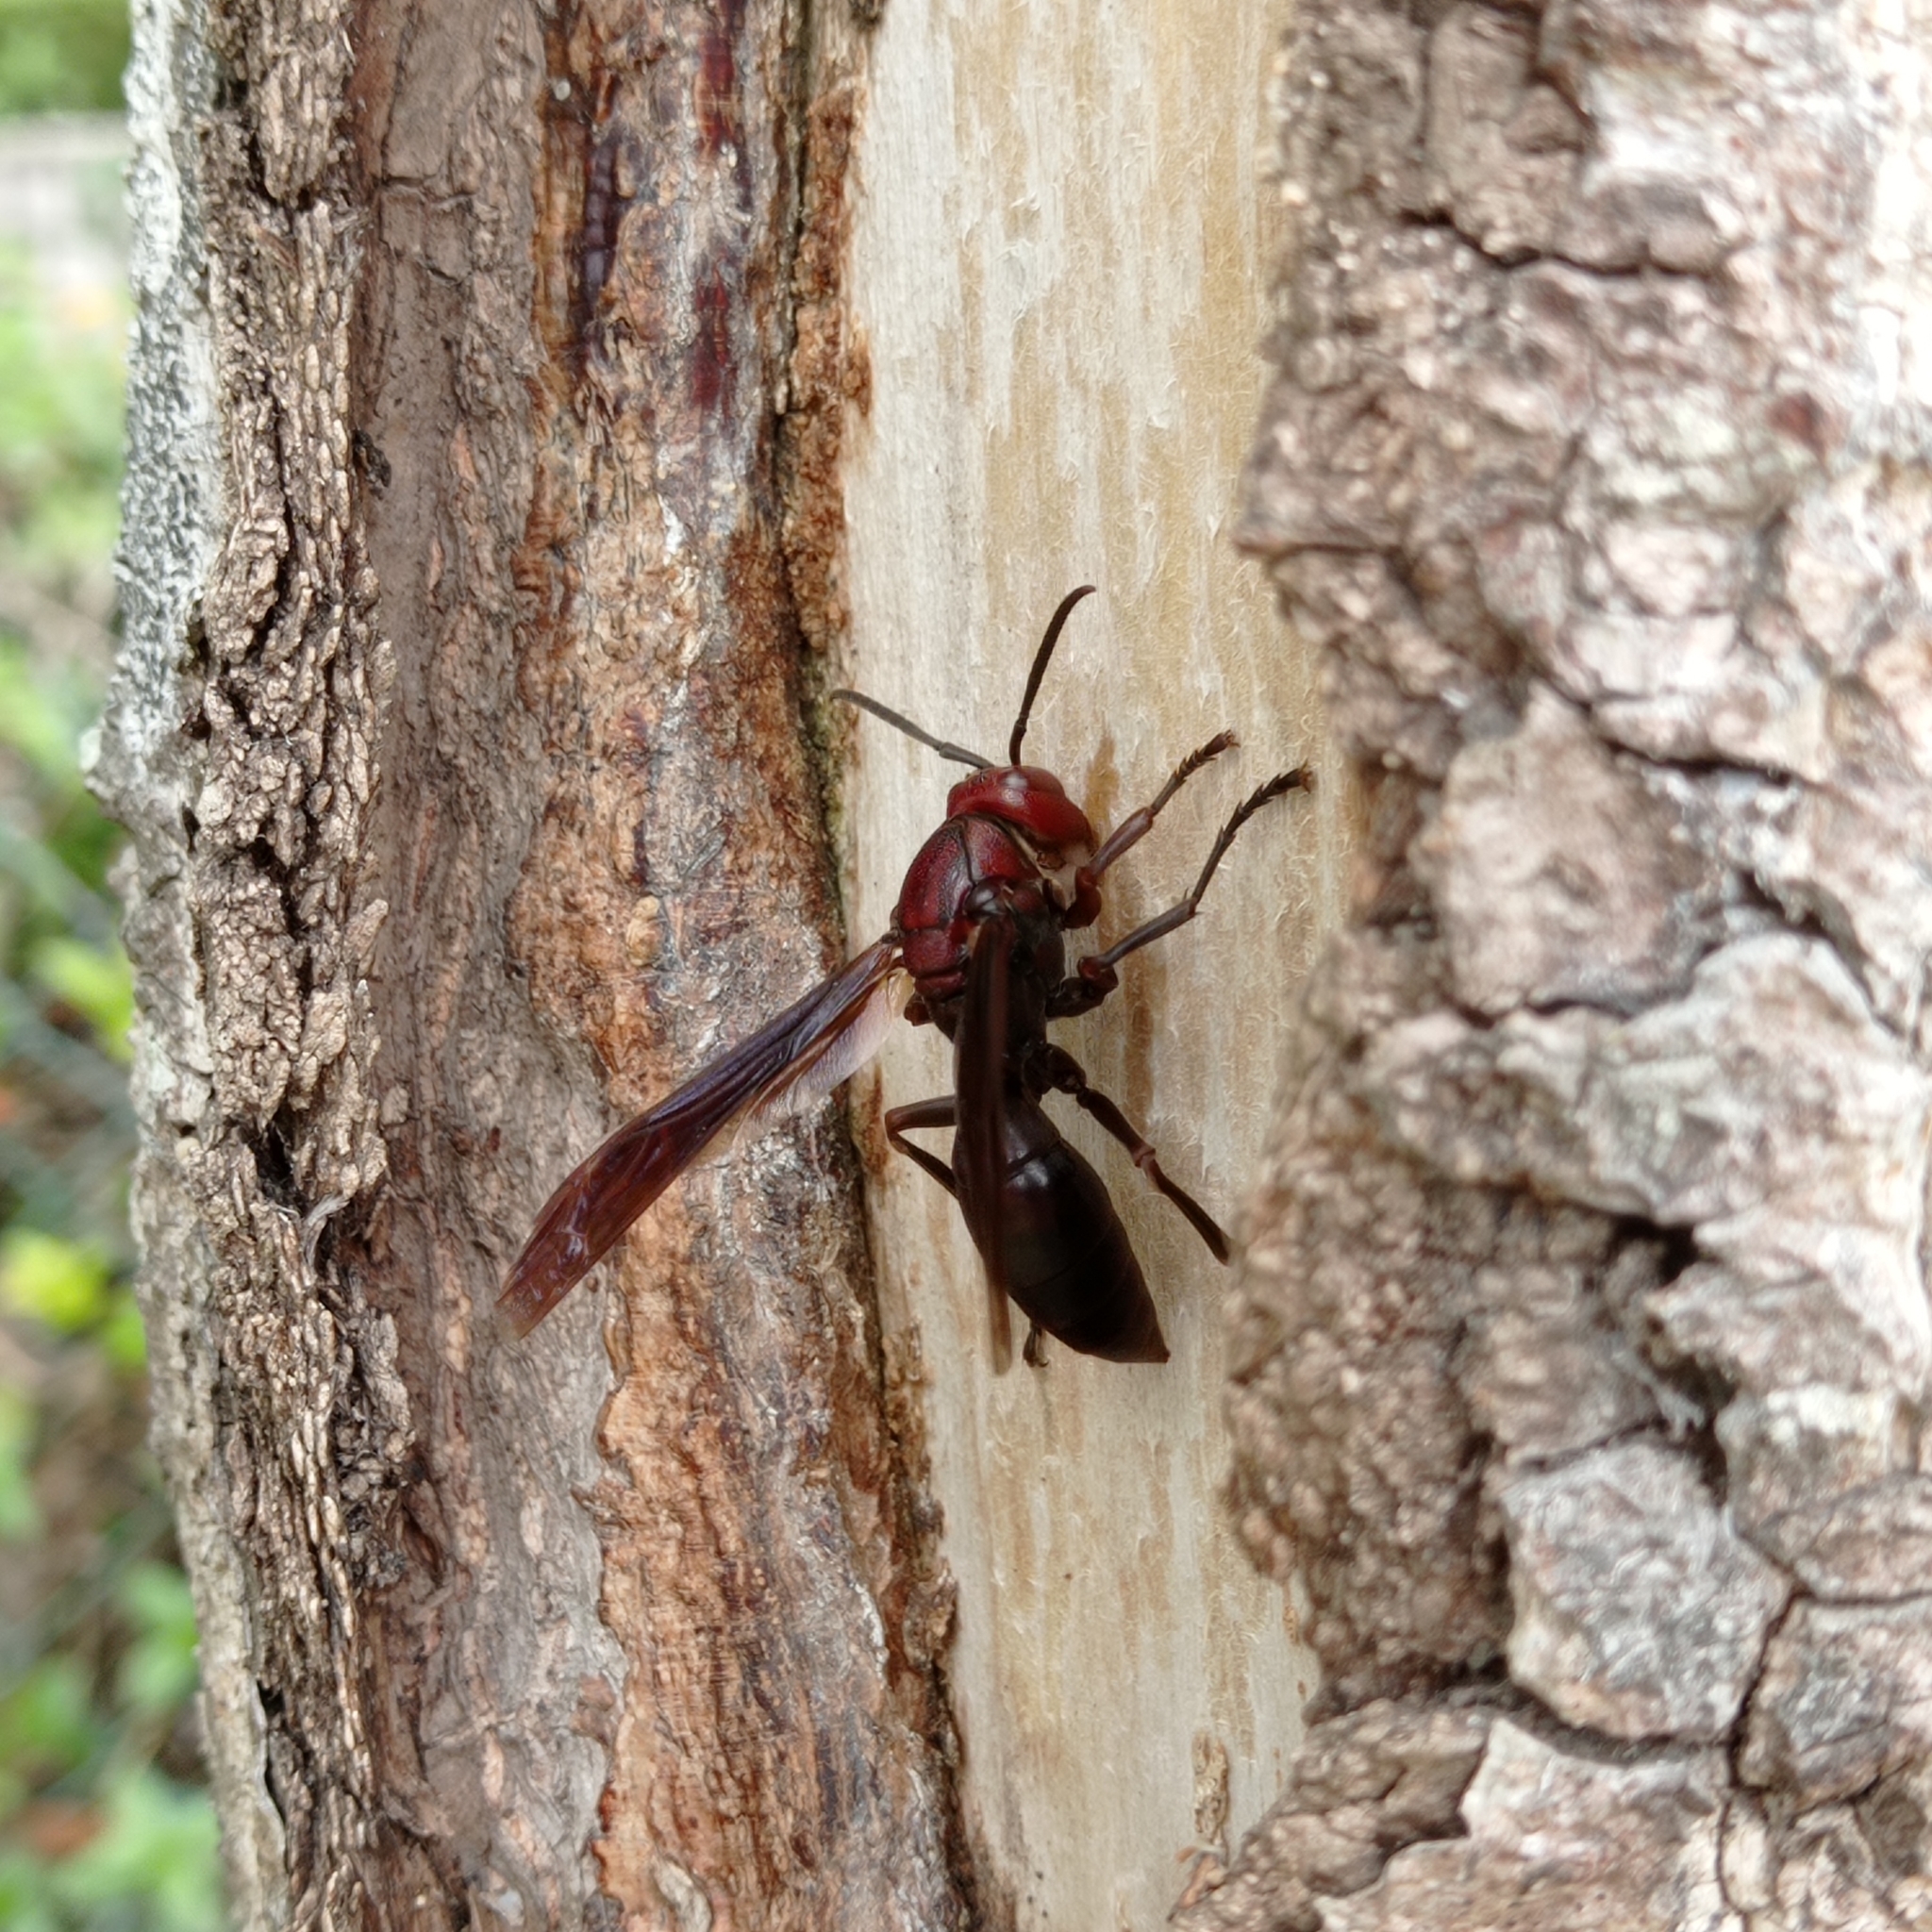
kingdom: Animalia
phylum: Arthropoda
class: Insecta
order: Hymenoptera
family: Eumenidae
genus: Polistes
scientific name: Polistes gigas
